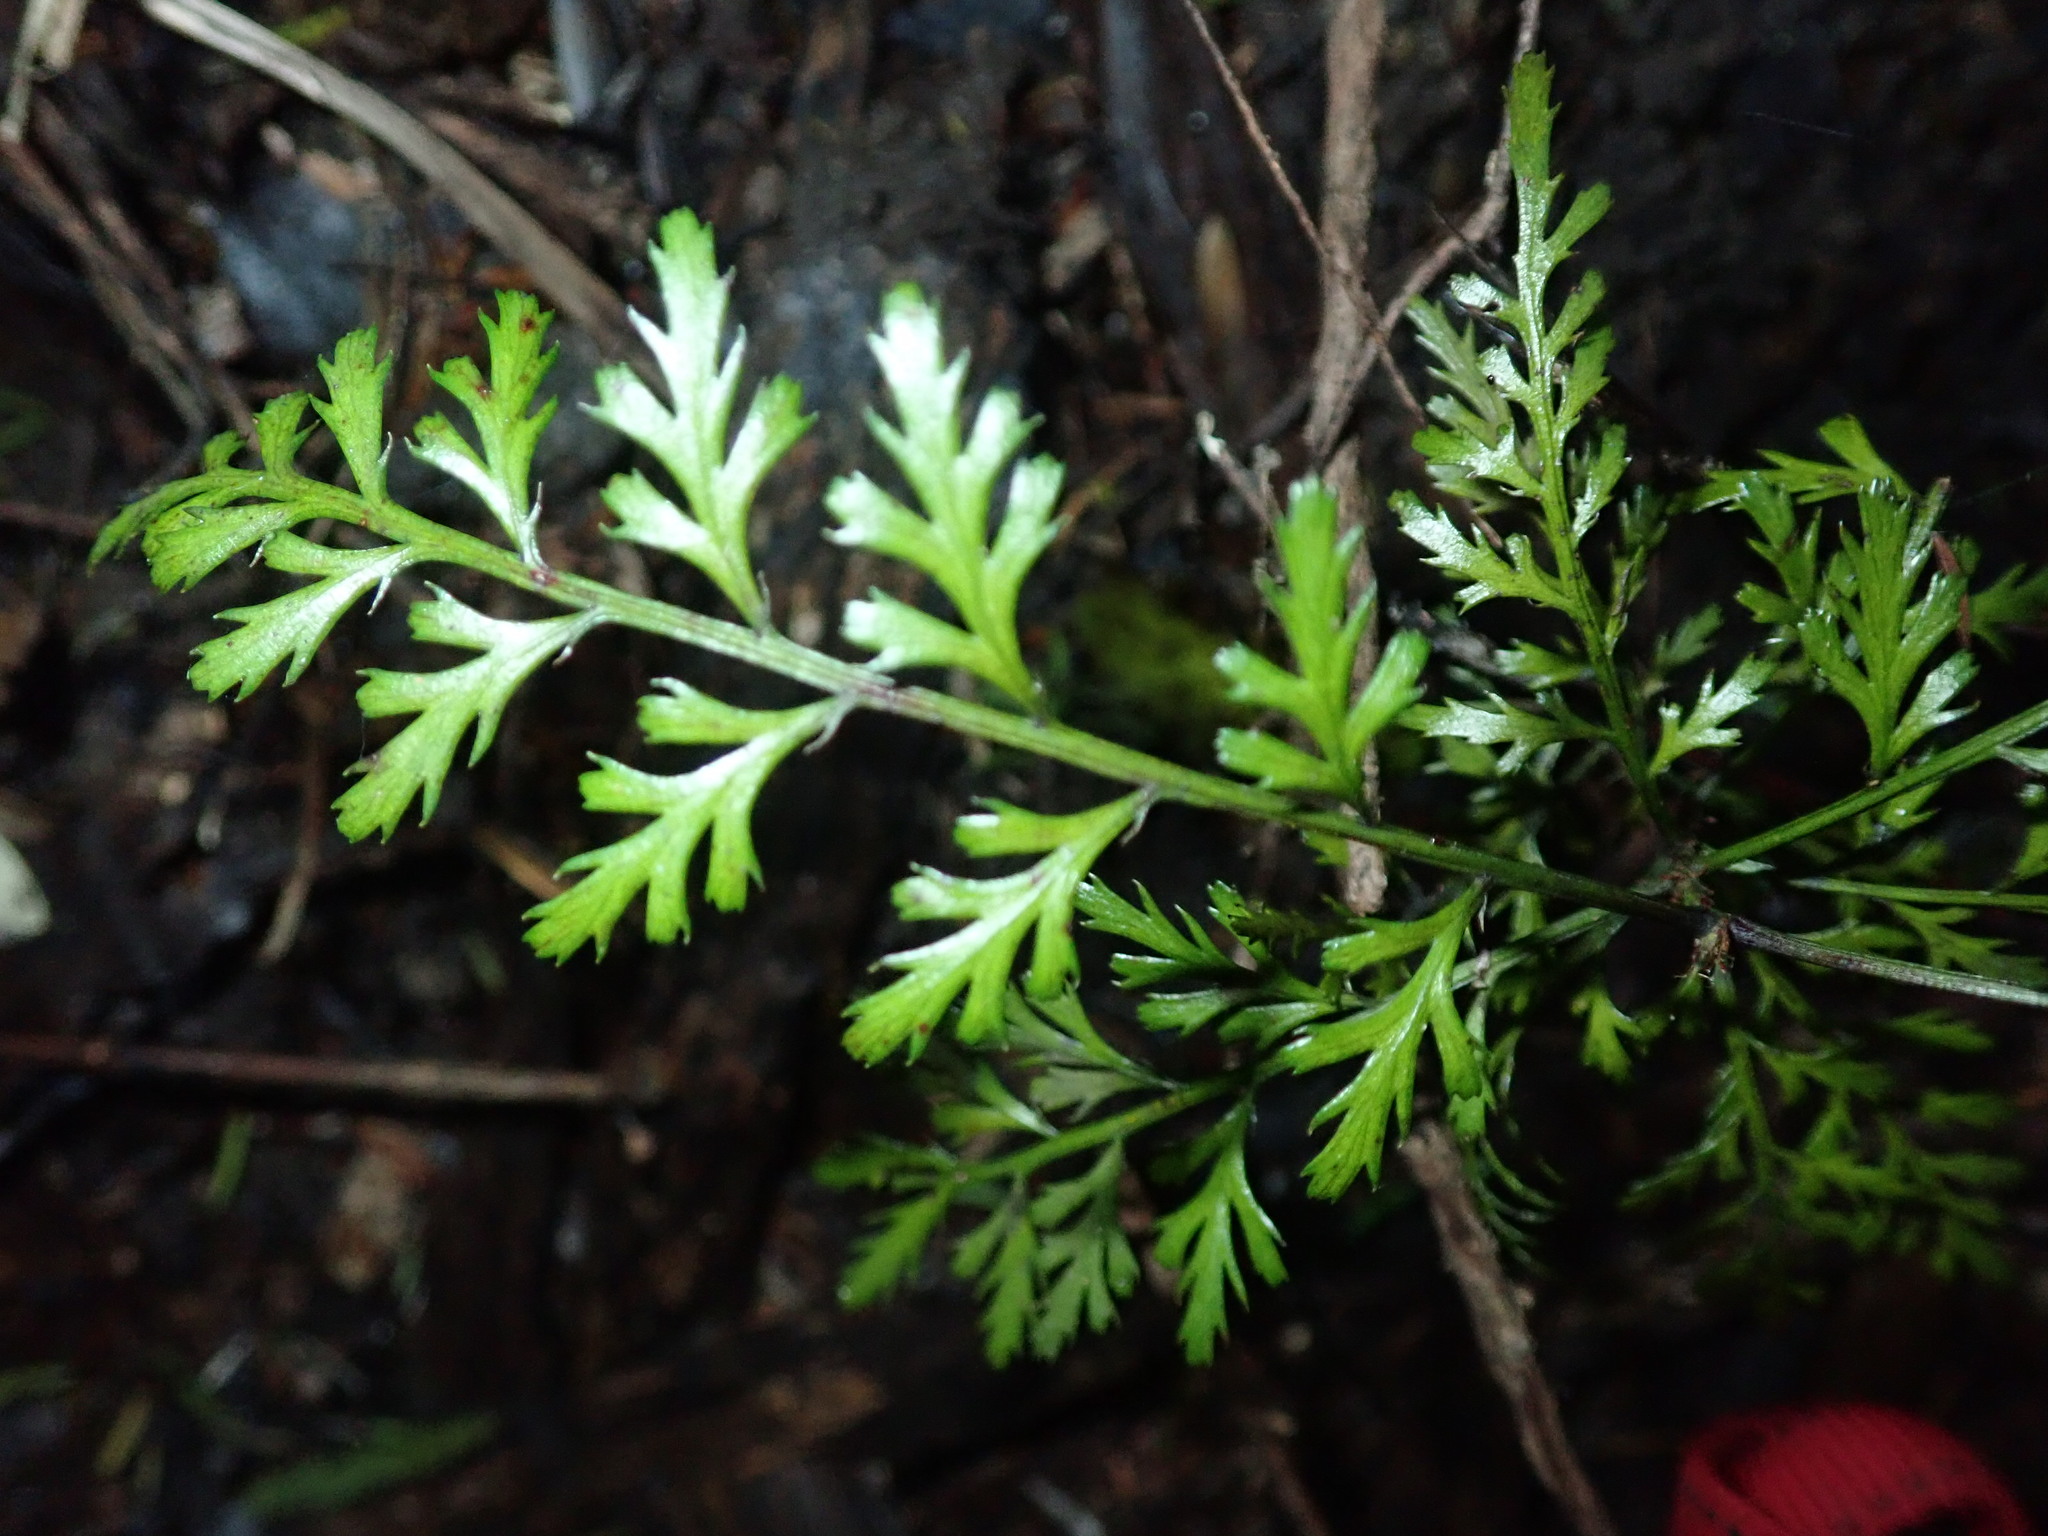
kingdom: Plantae
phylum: Tracheophyta
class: Pinopsida
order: Pinales
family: Phyllocladaceae
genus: Phyllocladus
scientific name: Phyllocladus trichomanoides
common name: Celery pine
